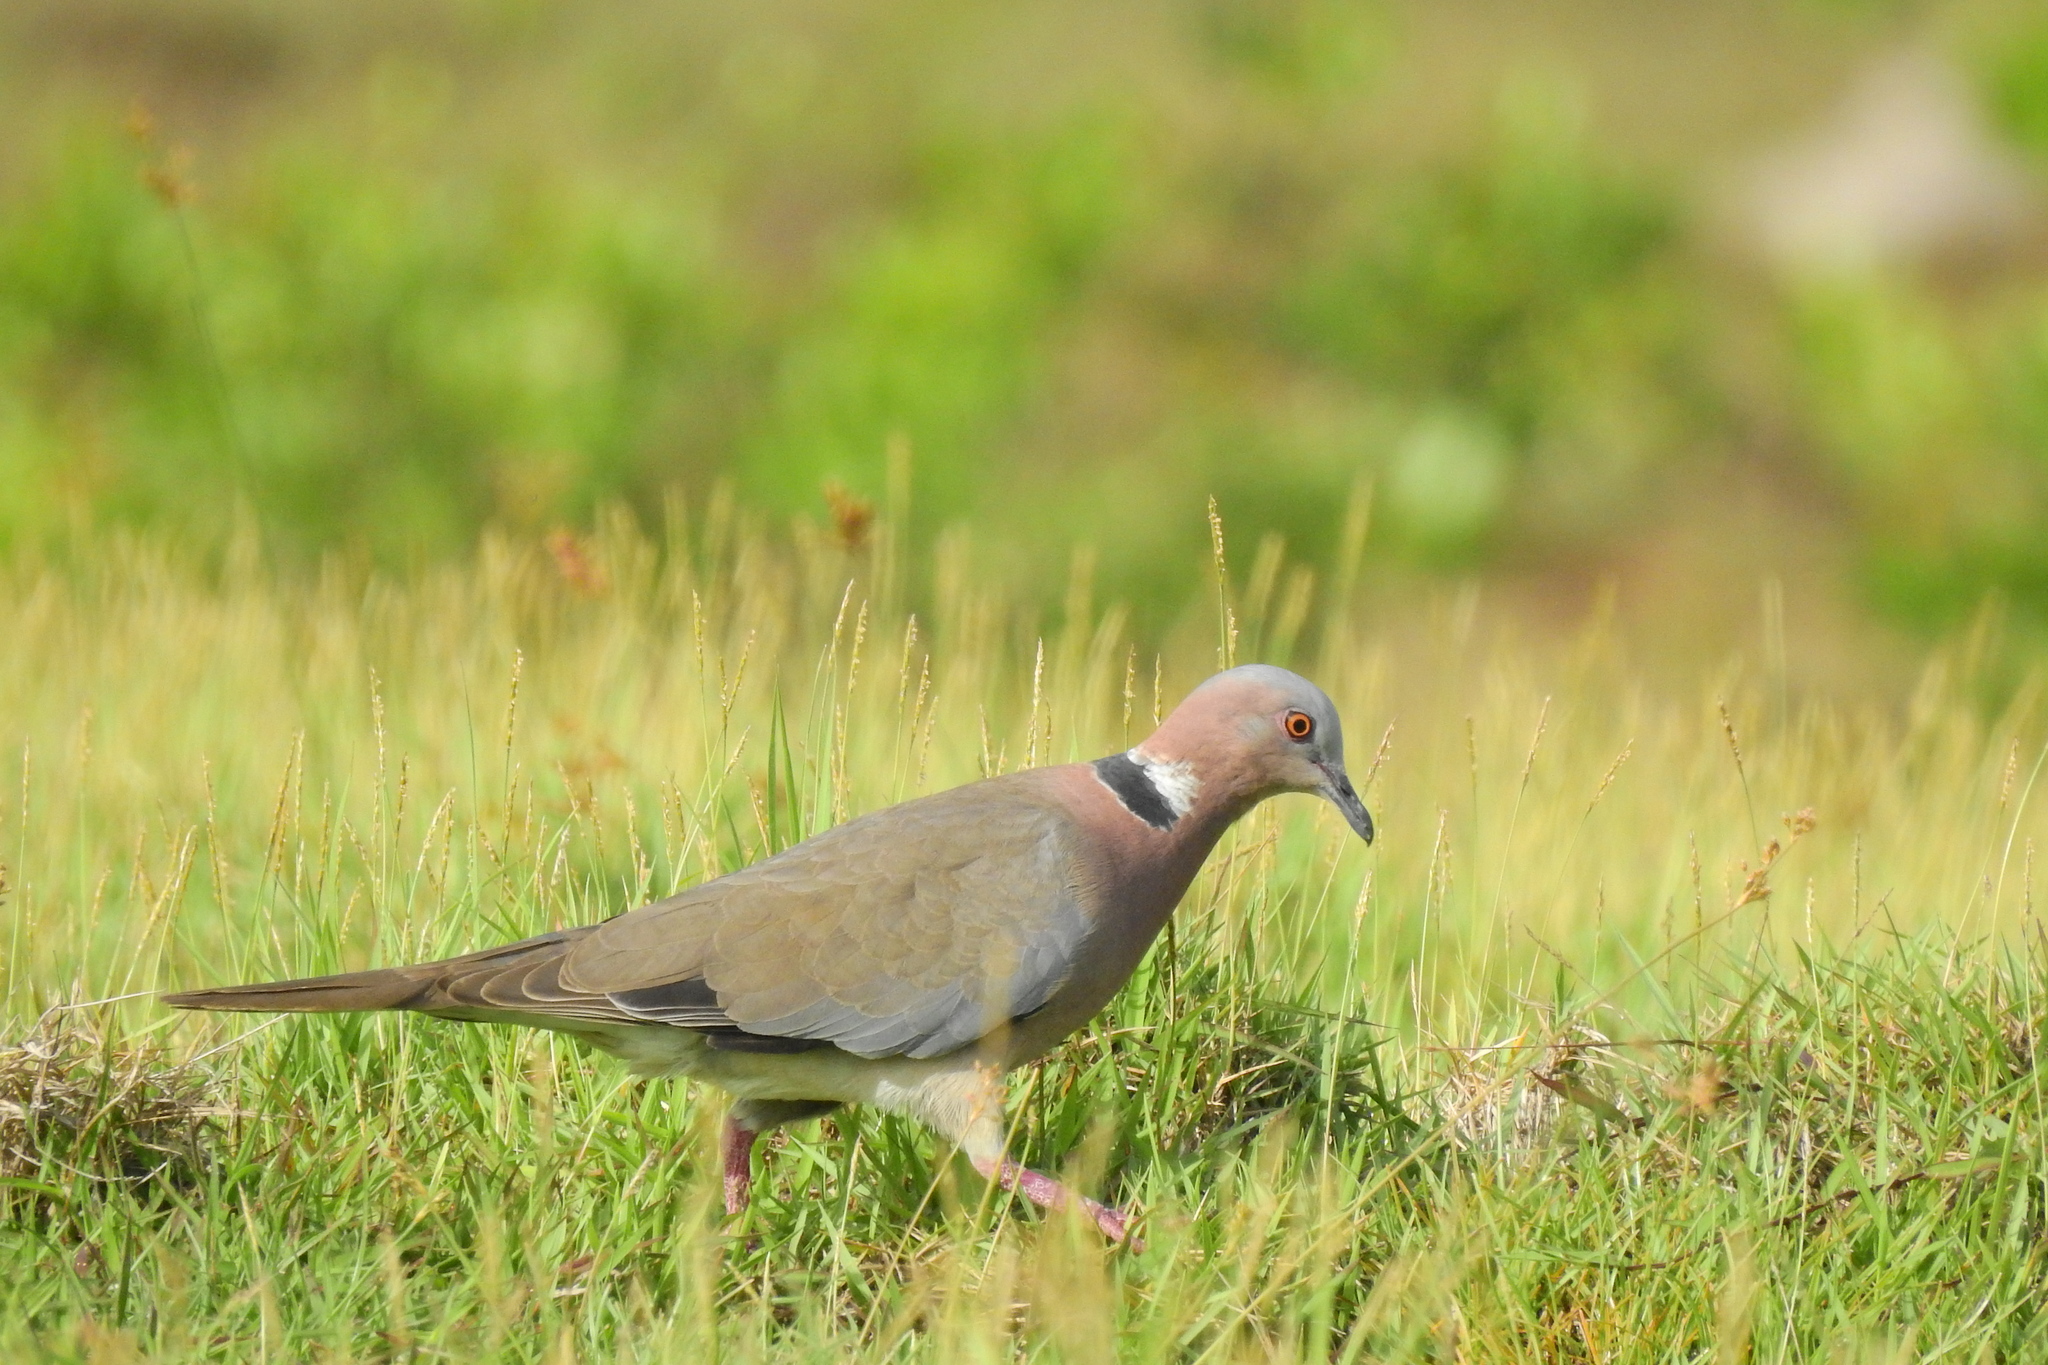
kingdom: Animalia
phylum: Chordata
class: Aves
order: Columbiformes
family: Columbidae
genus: Streptopelia
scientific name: Streptopelia bitorquata
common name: Island collared dove
